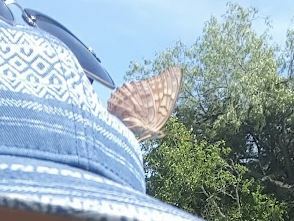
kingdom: Animalia
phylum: Arthropoda
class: Insecta
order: Lepidoptera
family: Nymphalidae
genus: Asterocampa
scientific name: Asterocampa clyton
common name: Tawny emperor
